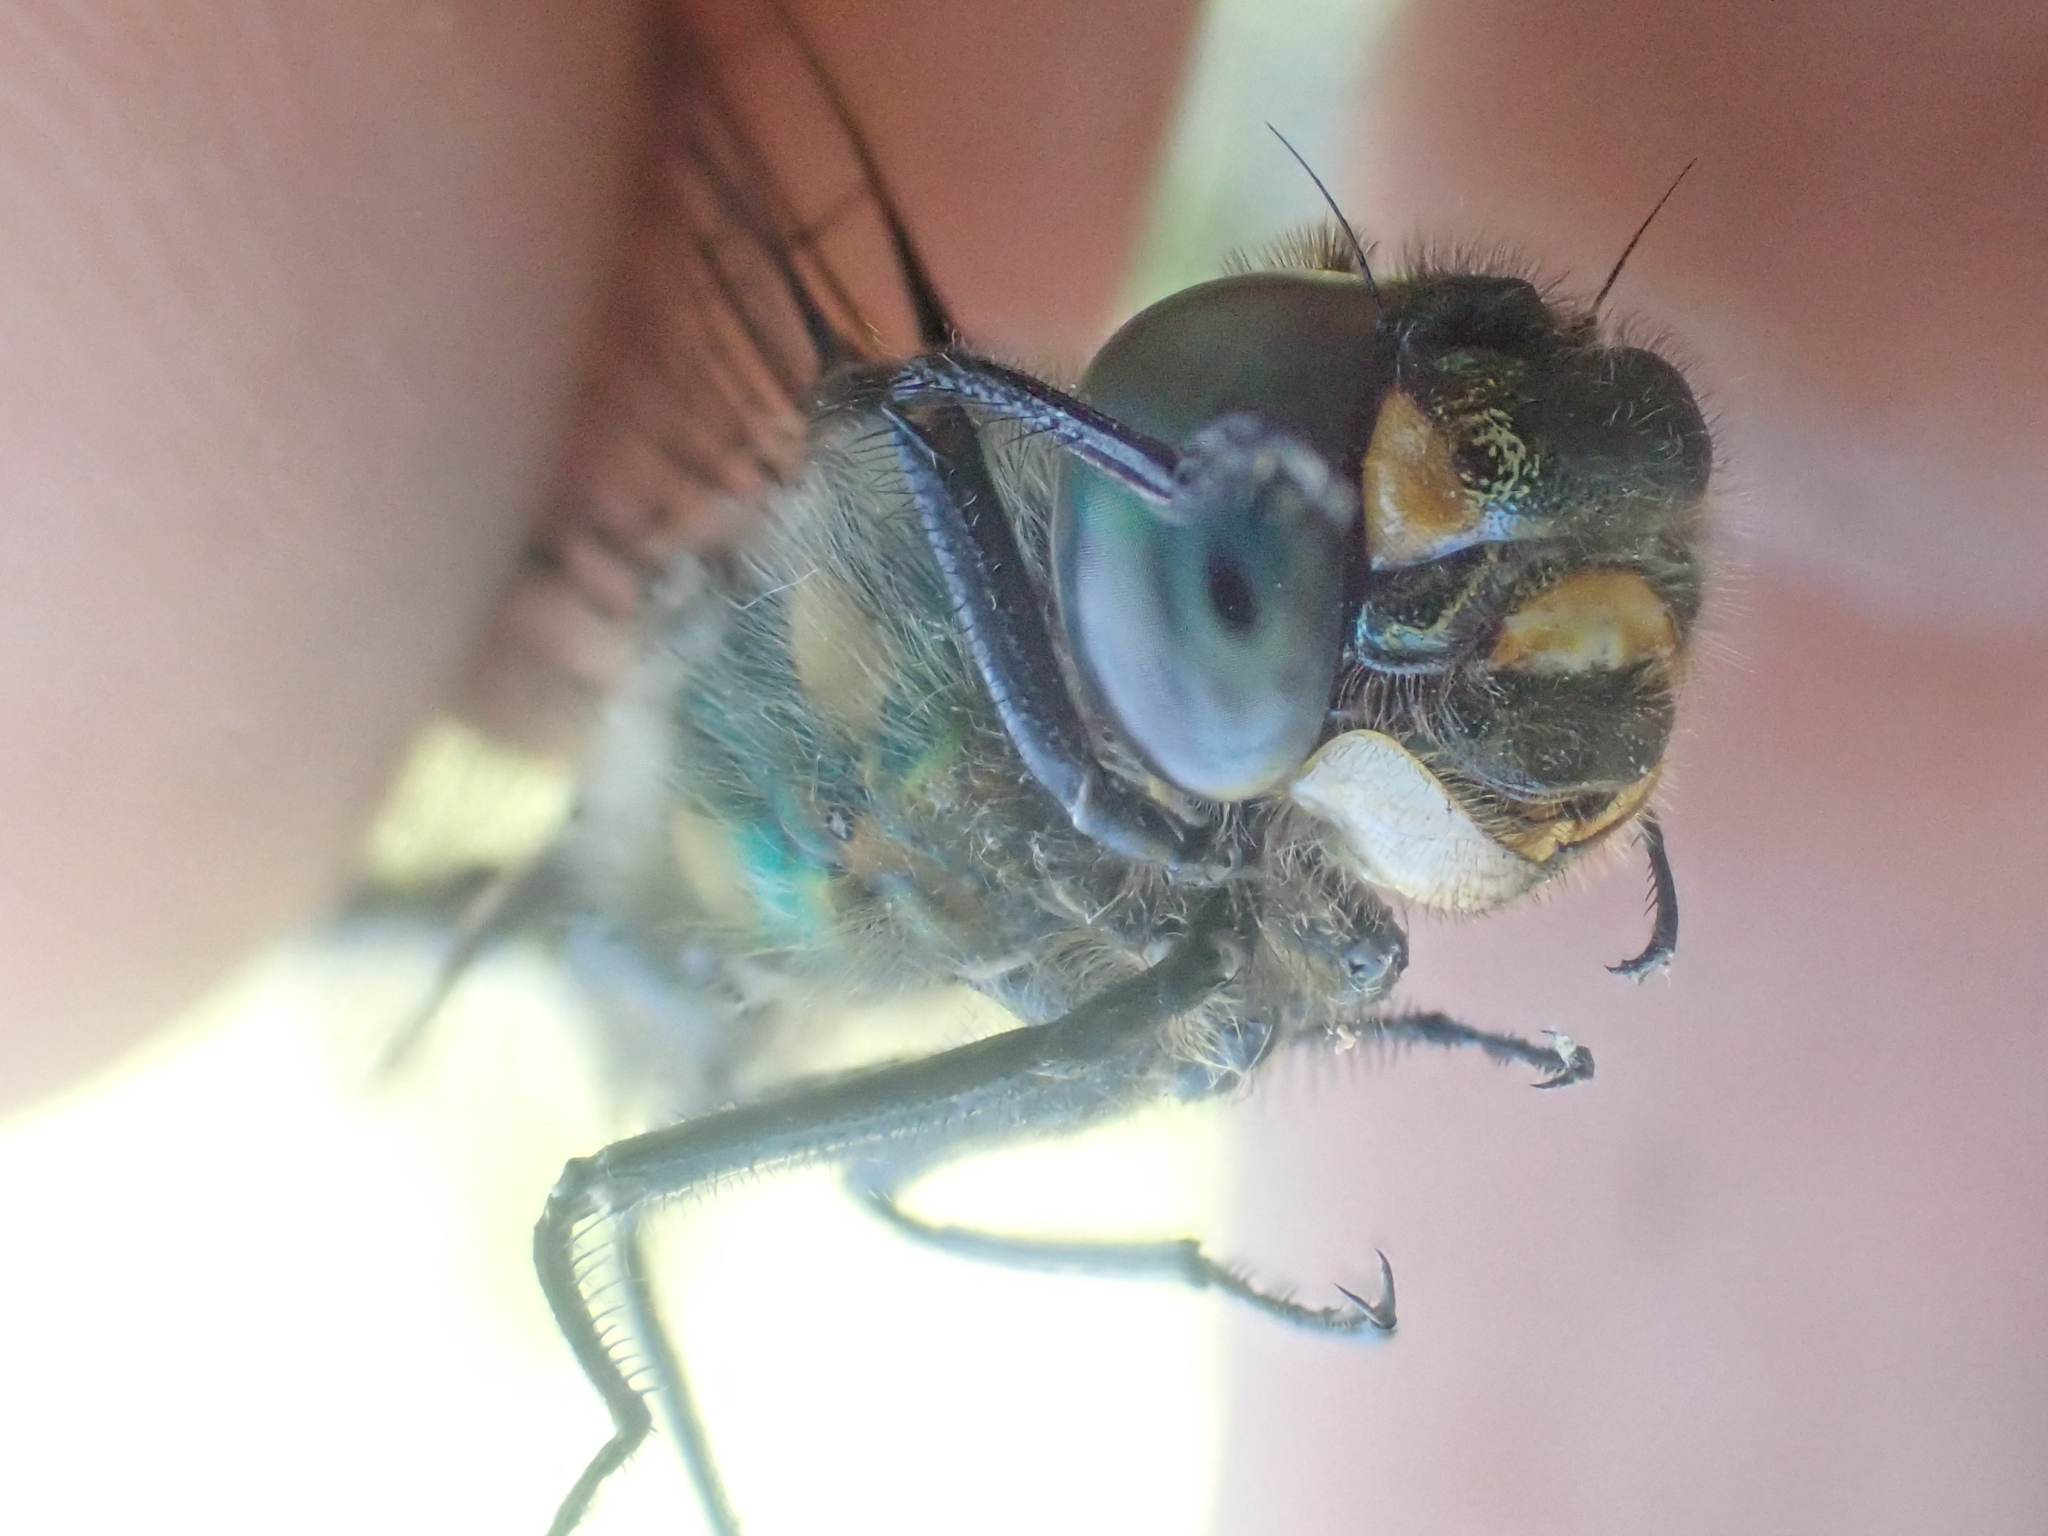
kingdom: Animalia
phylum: Arthropoda
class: Insecta
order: Odonata
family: Corduliidae
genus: Somatochlora
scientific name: Somatochlora semicircularis
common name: Mountain emerald
